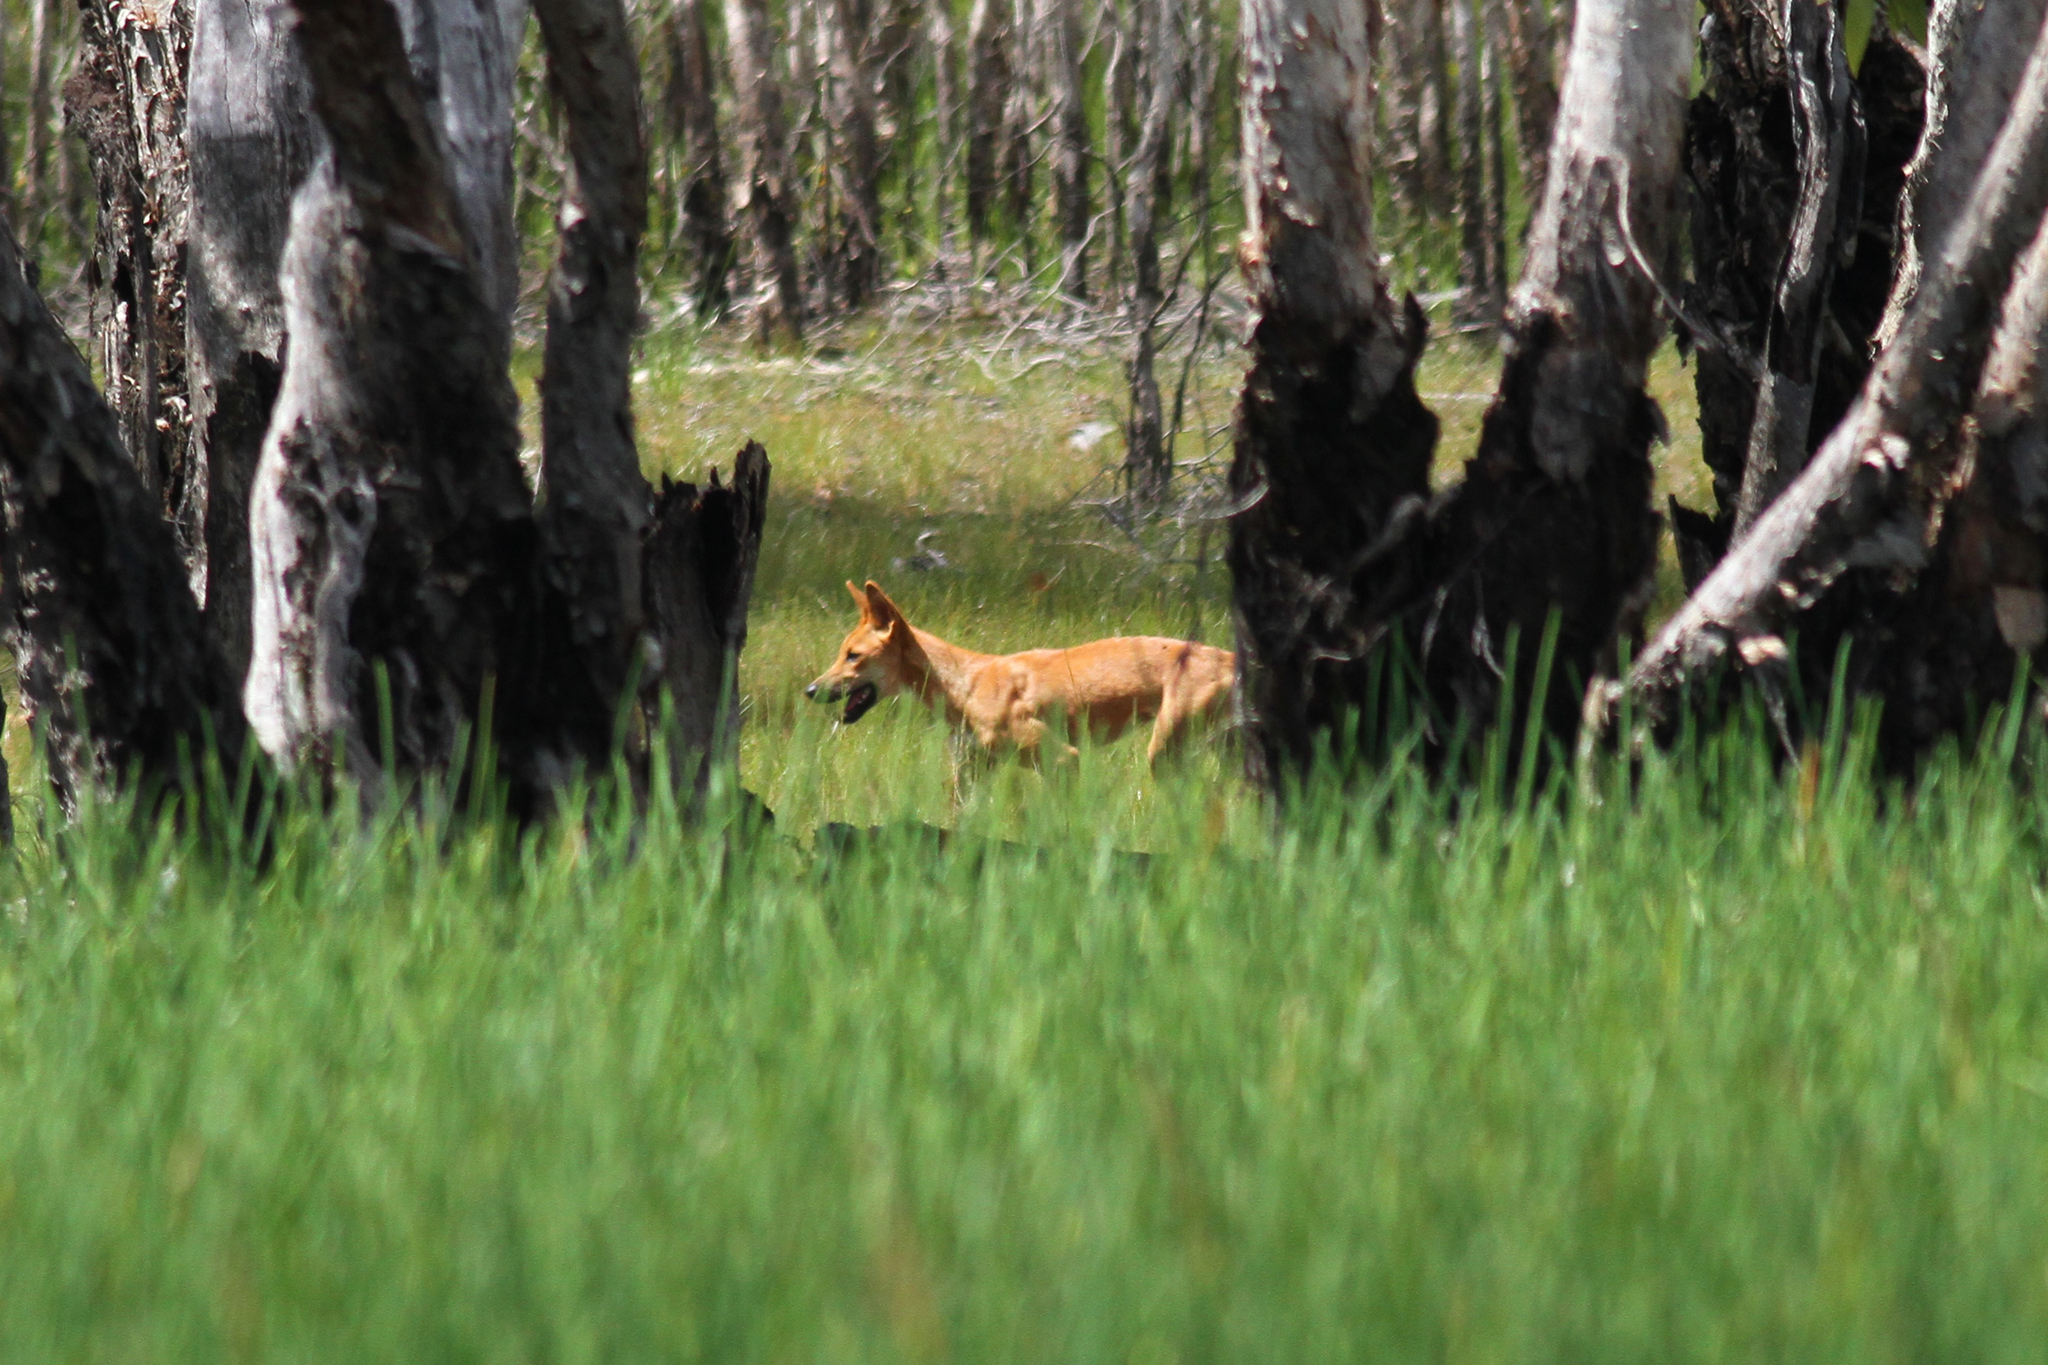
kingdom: Animalia
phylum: Chordata
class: Mammalia
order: Carnivora
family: Canidae
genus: Canis
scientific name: Canis lupus
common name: Gray wolf
